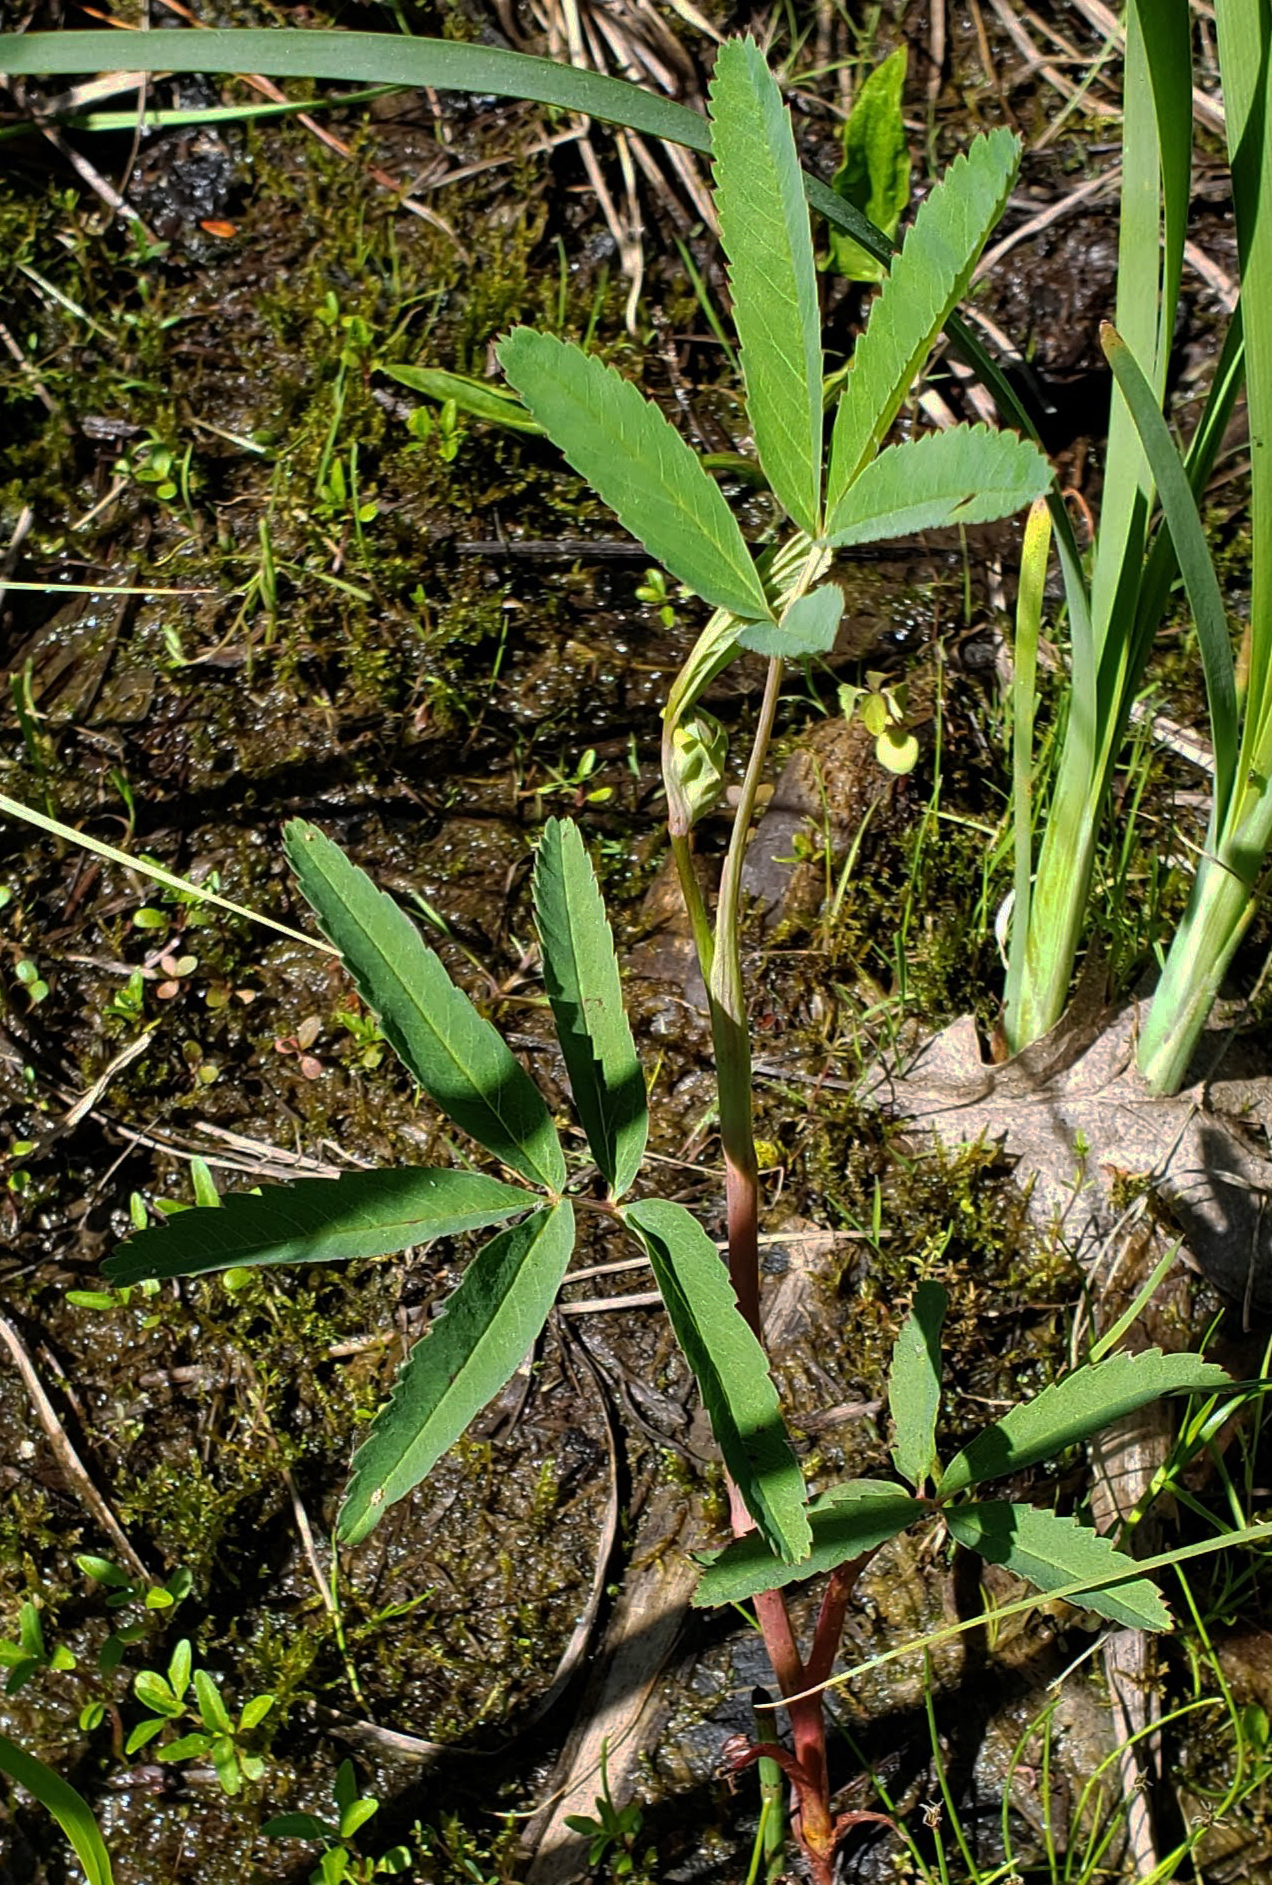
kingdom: Plantae
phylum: Tracheophyta
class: Magnoliopsida
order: Rosales
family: Rosaceae
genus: Comarum
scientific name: Comarum palustre
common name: Marsh cinquefoil
